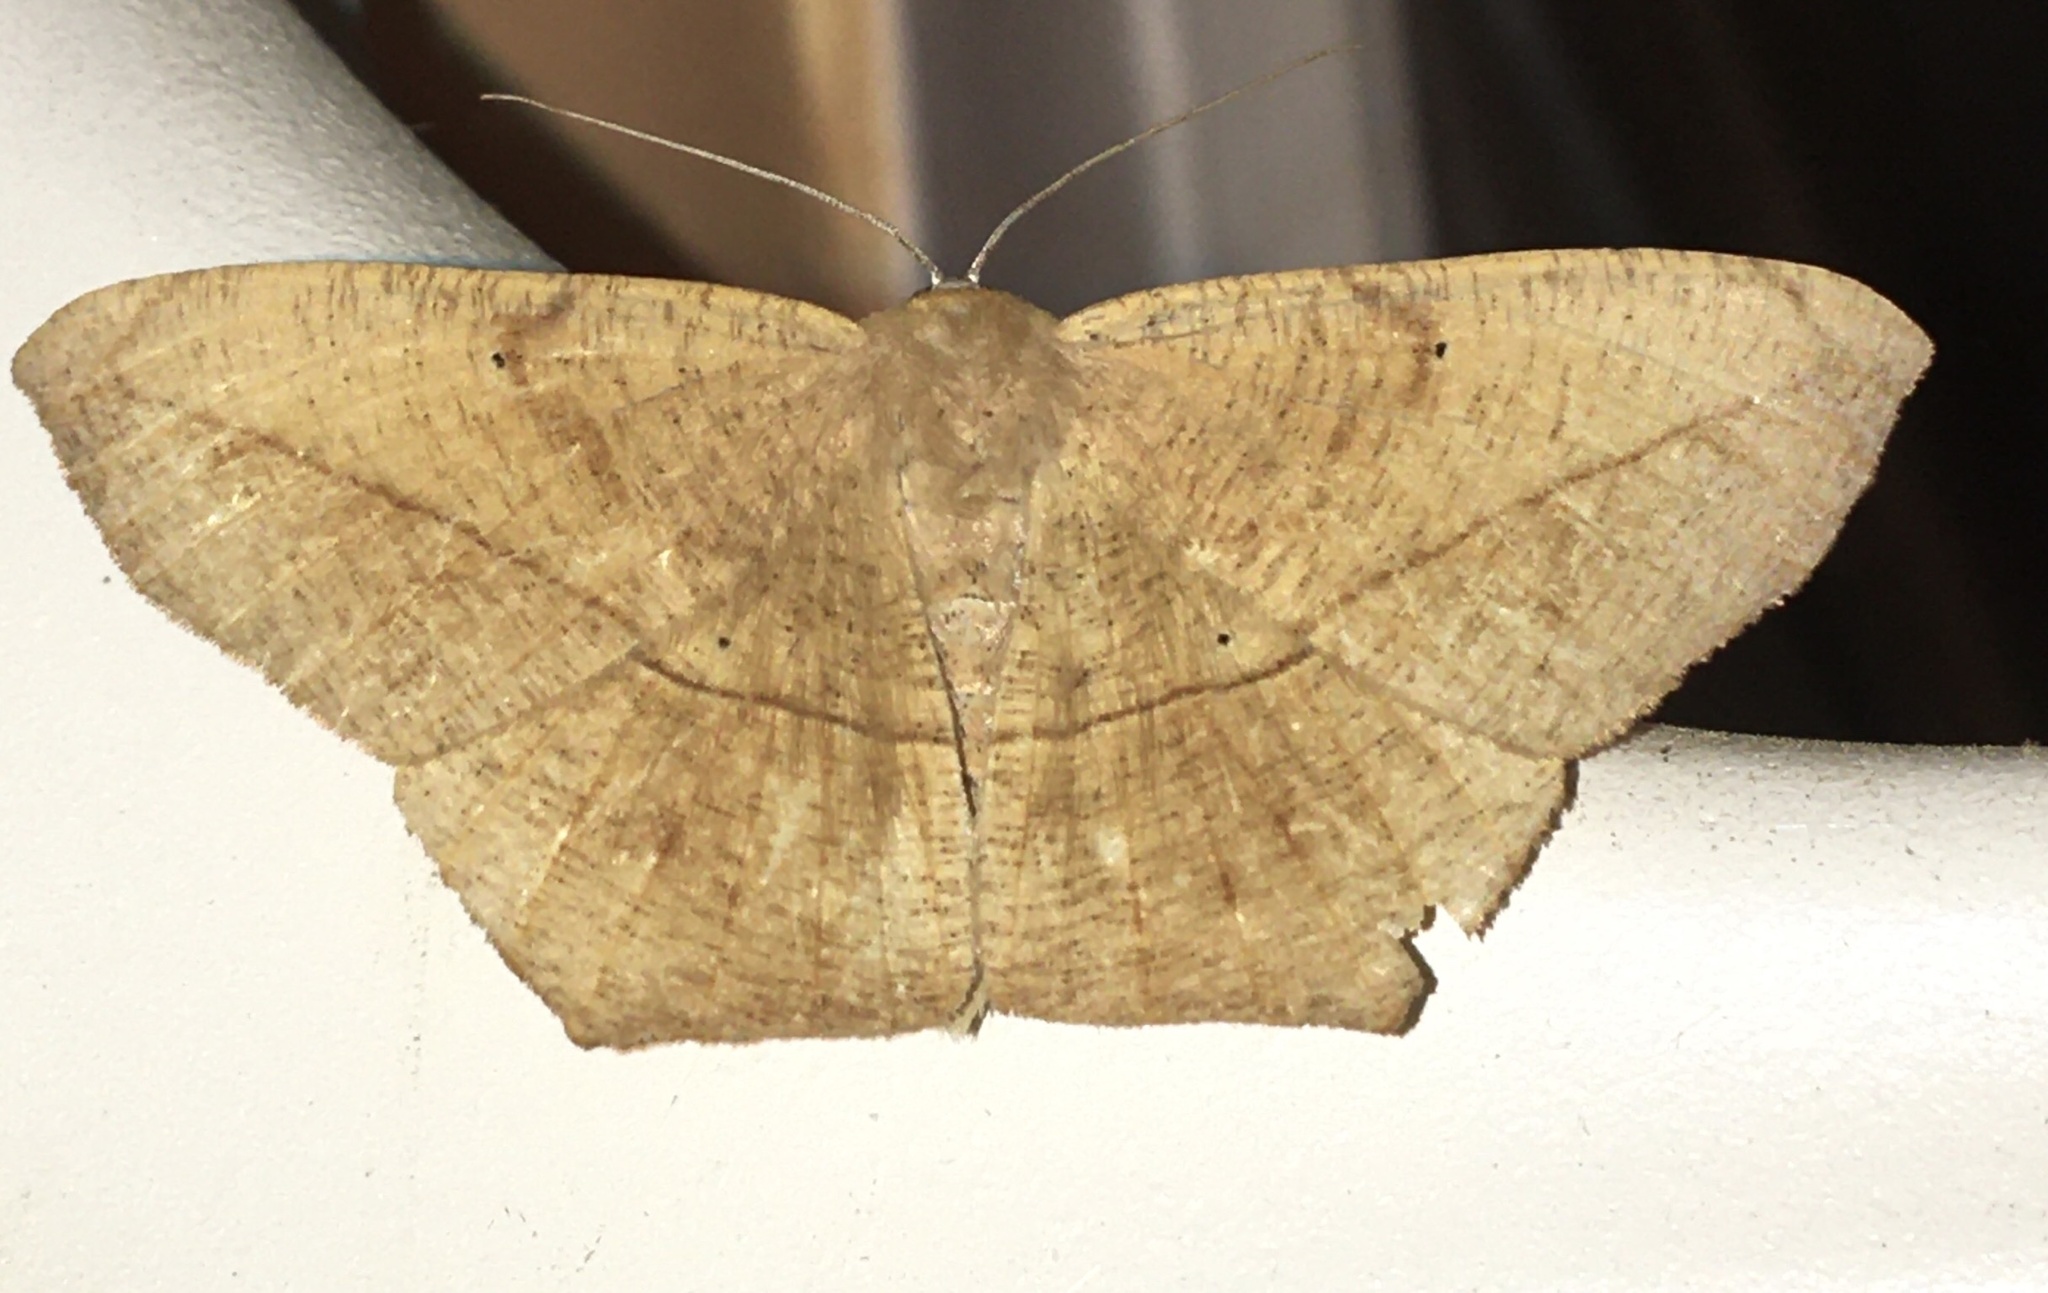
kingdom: Animalia
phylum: Arthropoda
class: Insecta
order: Lepidoptera
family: Geometridae
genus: Prochoerodes
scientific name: Prochoerodes lineola
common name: Large maple spanworm
